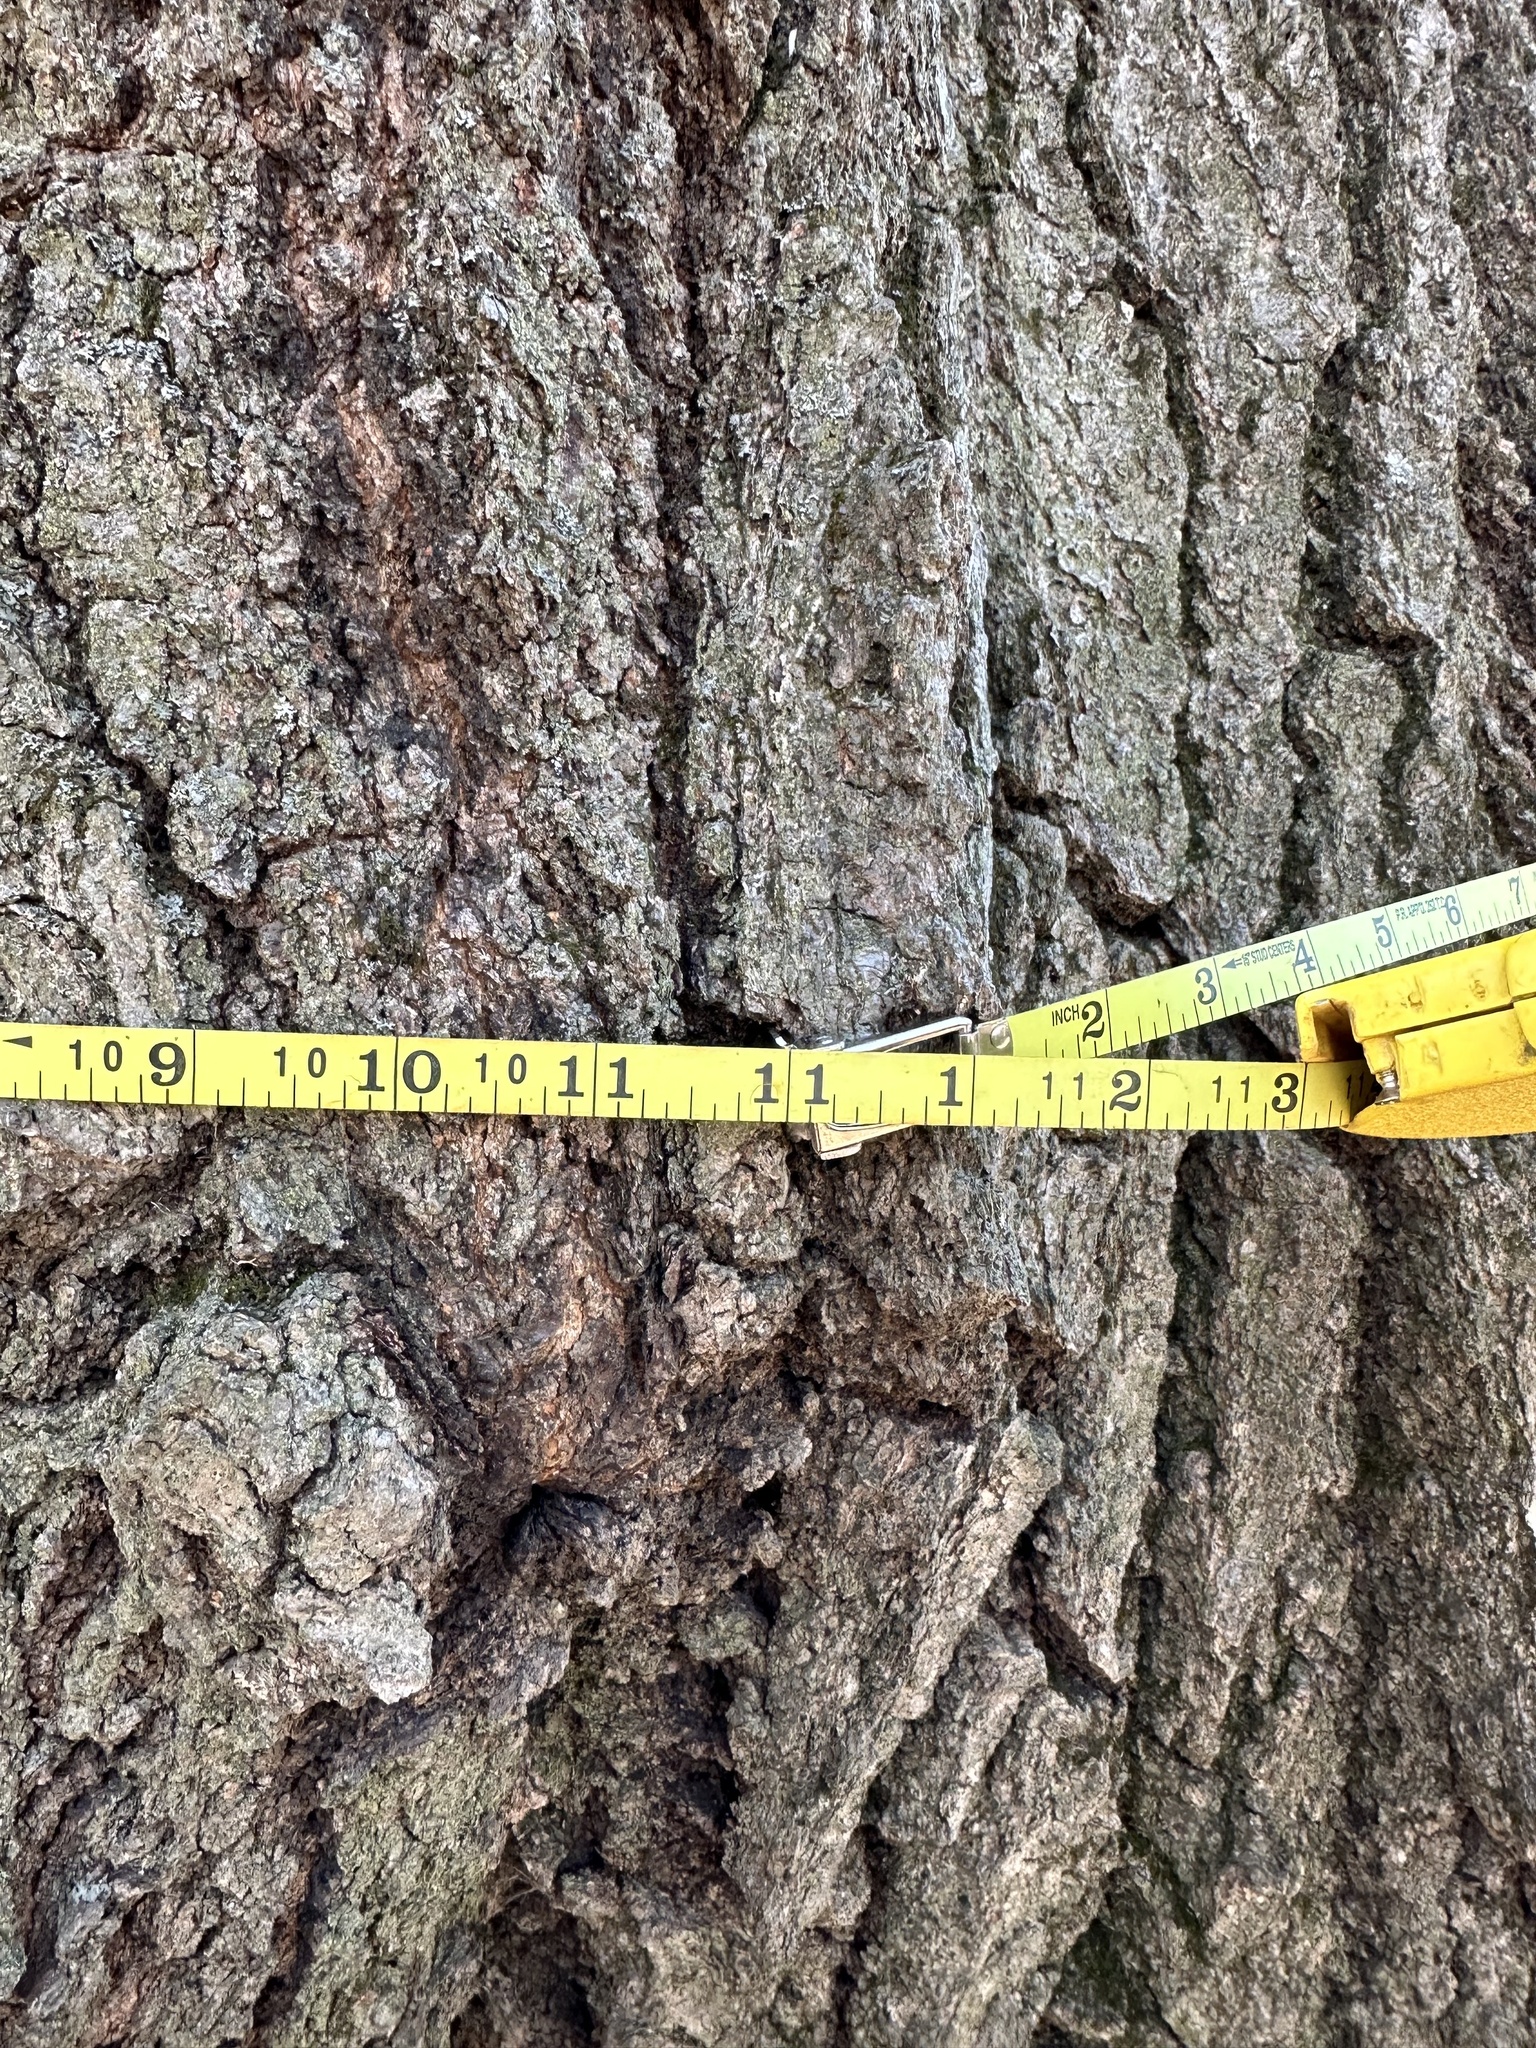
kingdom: Plantae
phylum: Tracheophyta
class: Magnoliopsida
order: Fagales
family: Fagaceae
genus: Quercus
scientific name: Quercus rubra
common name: Red oak
